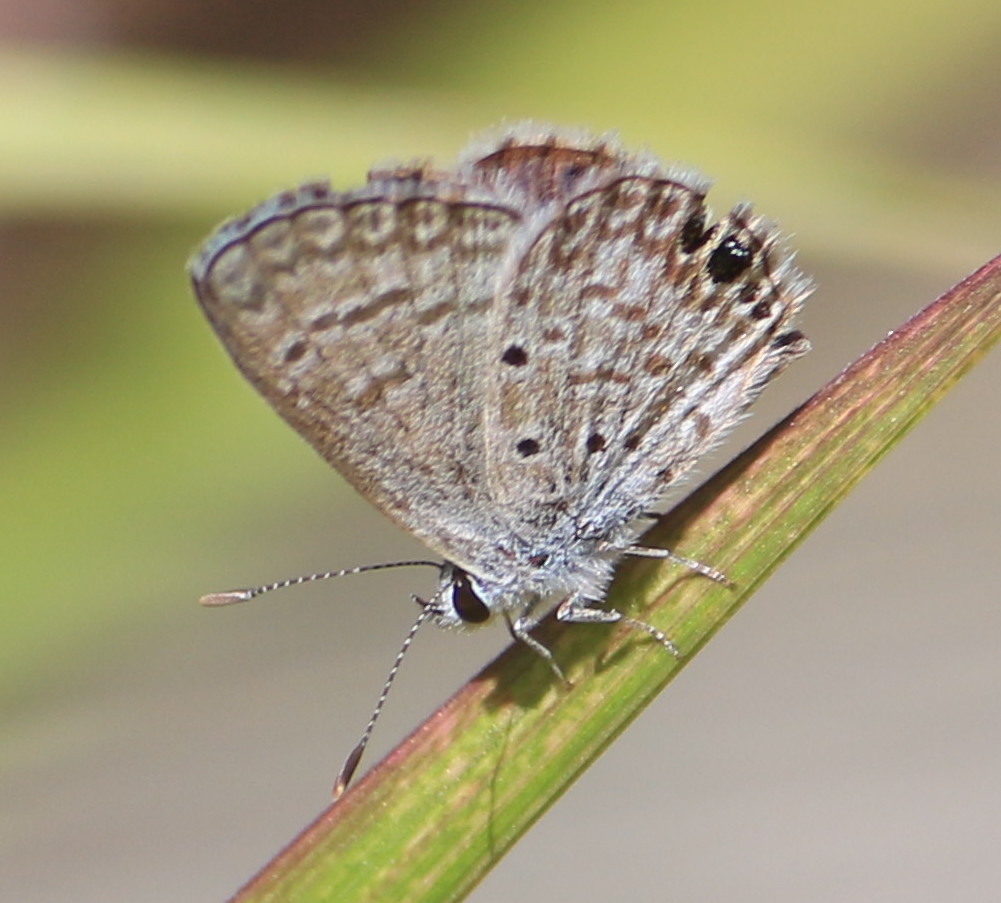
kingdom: Animalia
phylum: Arthropoda
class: Insecta
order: Lepidoptera
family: Lycaenidae
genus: Hemiargus
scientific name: Hemiargus ceraunus
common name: Ceraunus blue
